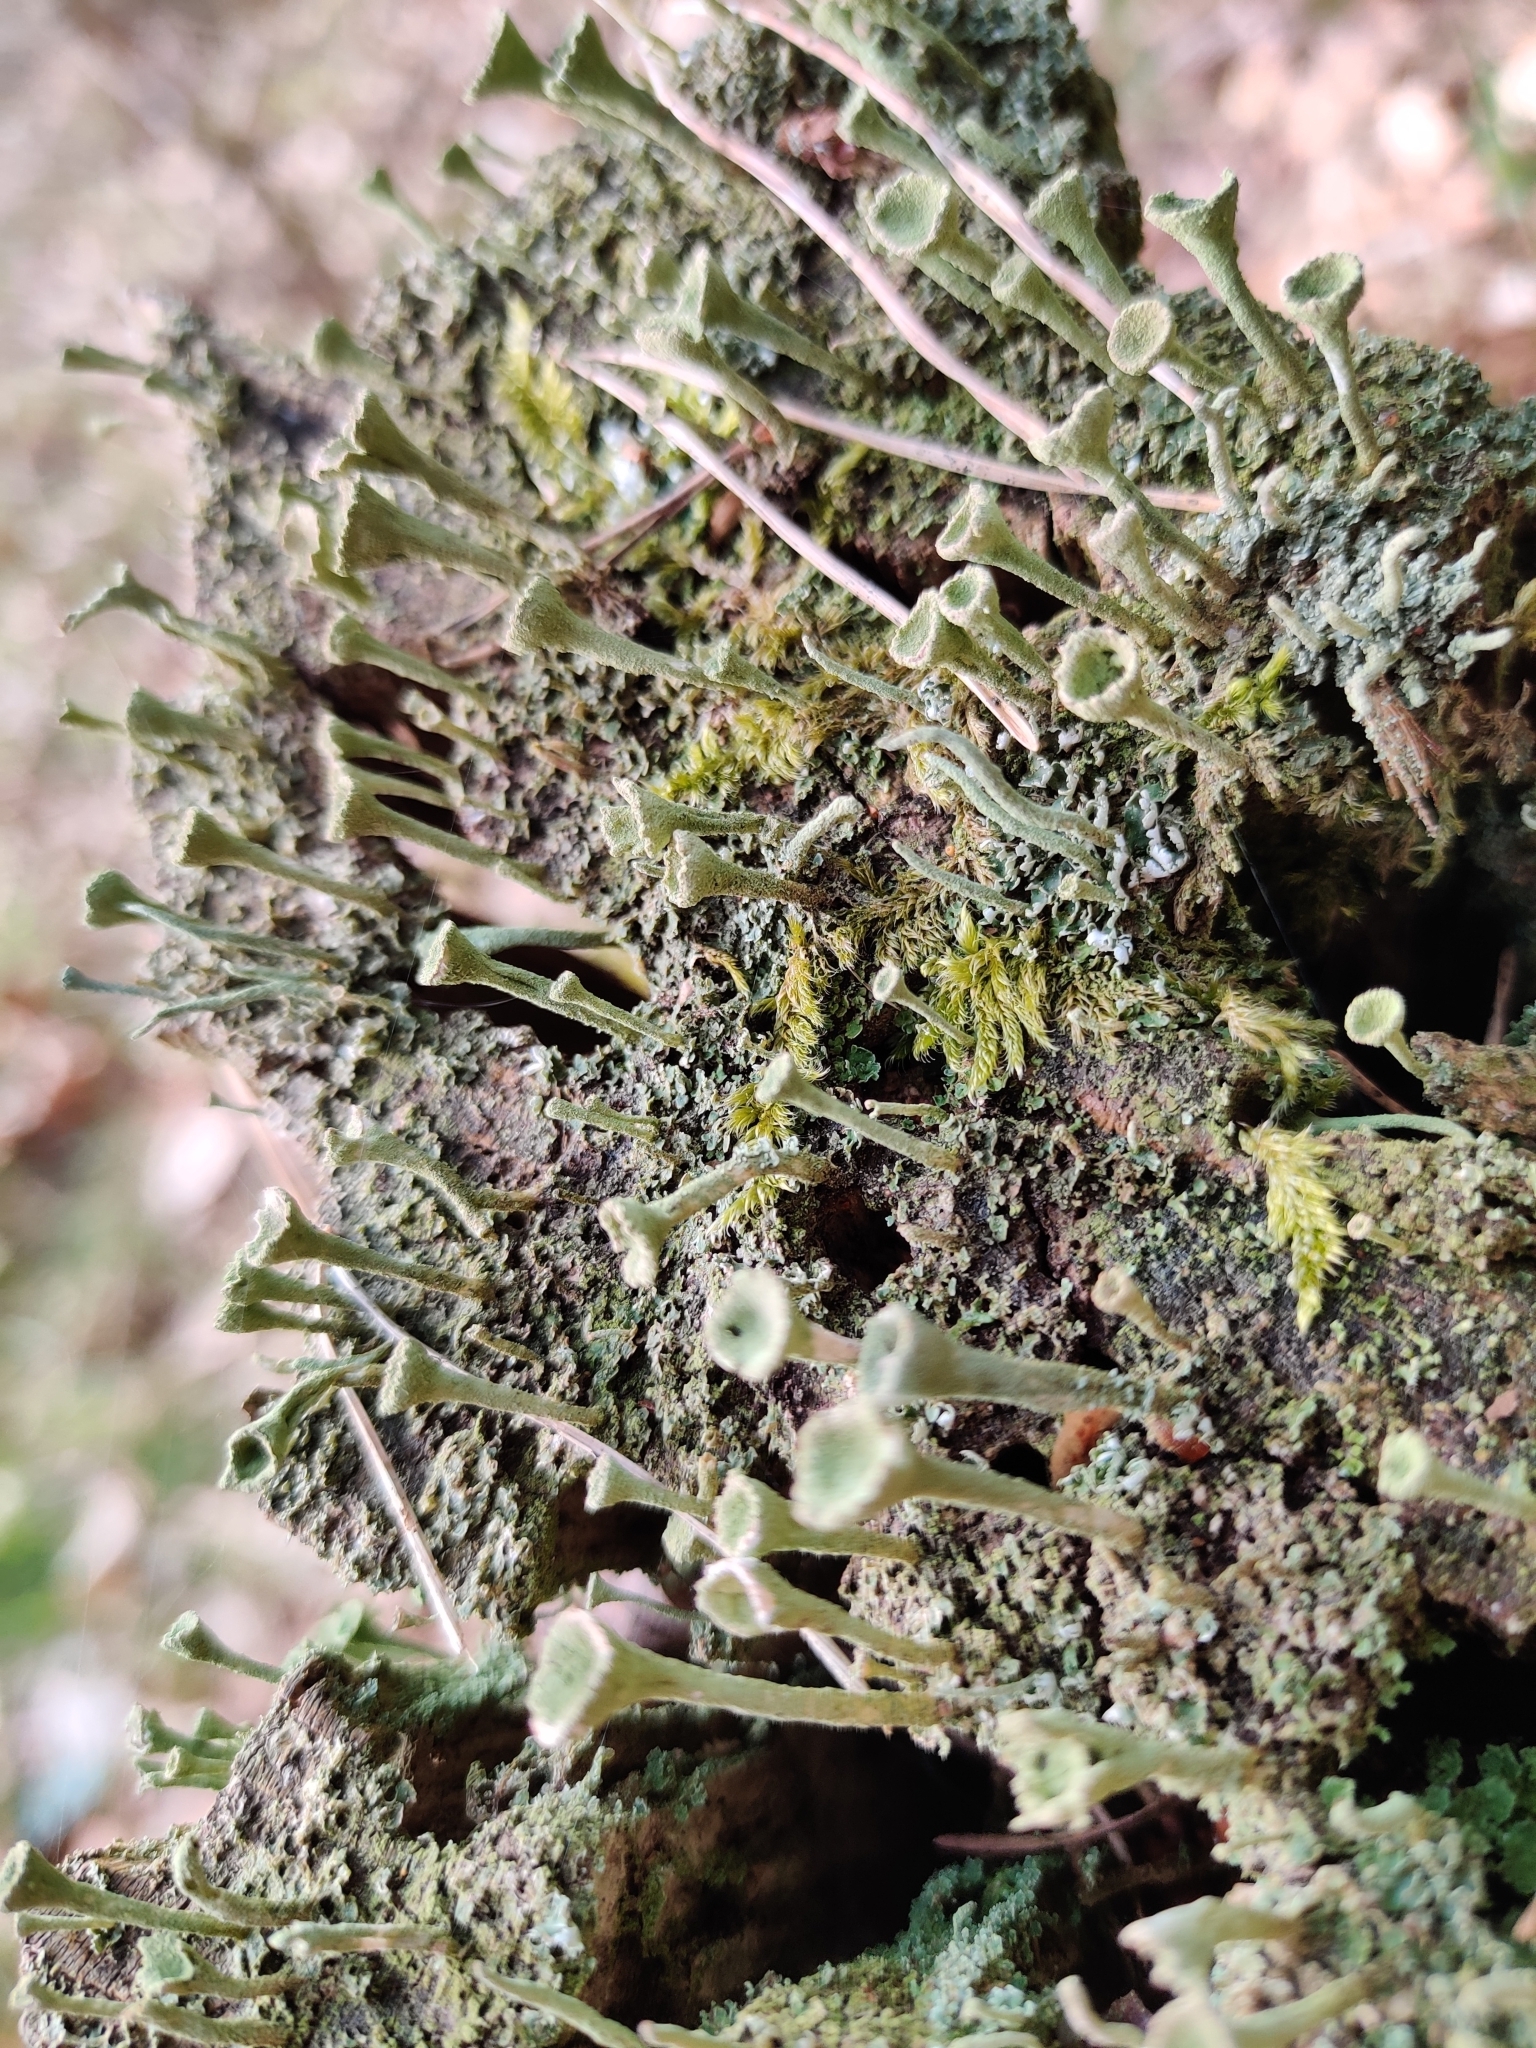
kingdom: Fungi
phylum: Ascomycota
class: Lecanoromycetes
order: Lecanorales
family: Cladoniaceae
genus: Cladonia
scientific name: Cladonia fimbriata
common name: Powdered trumpet lichen
